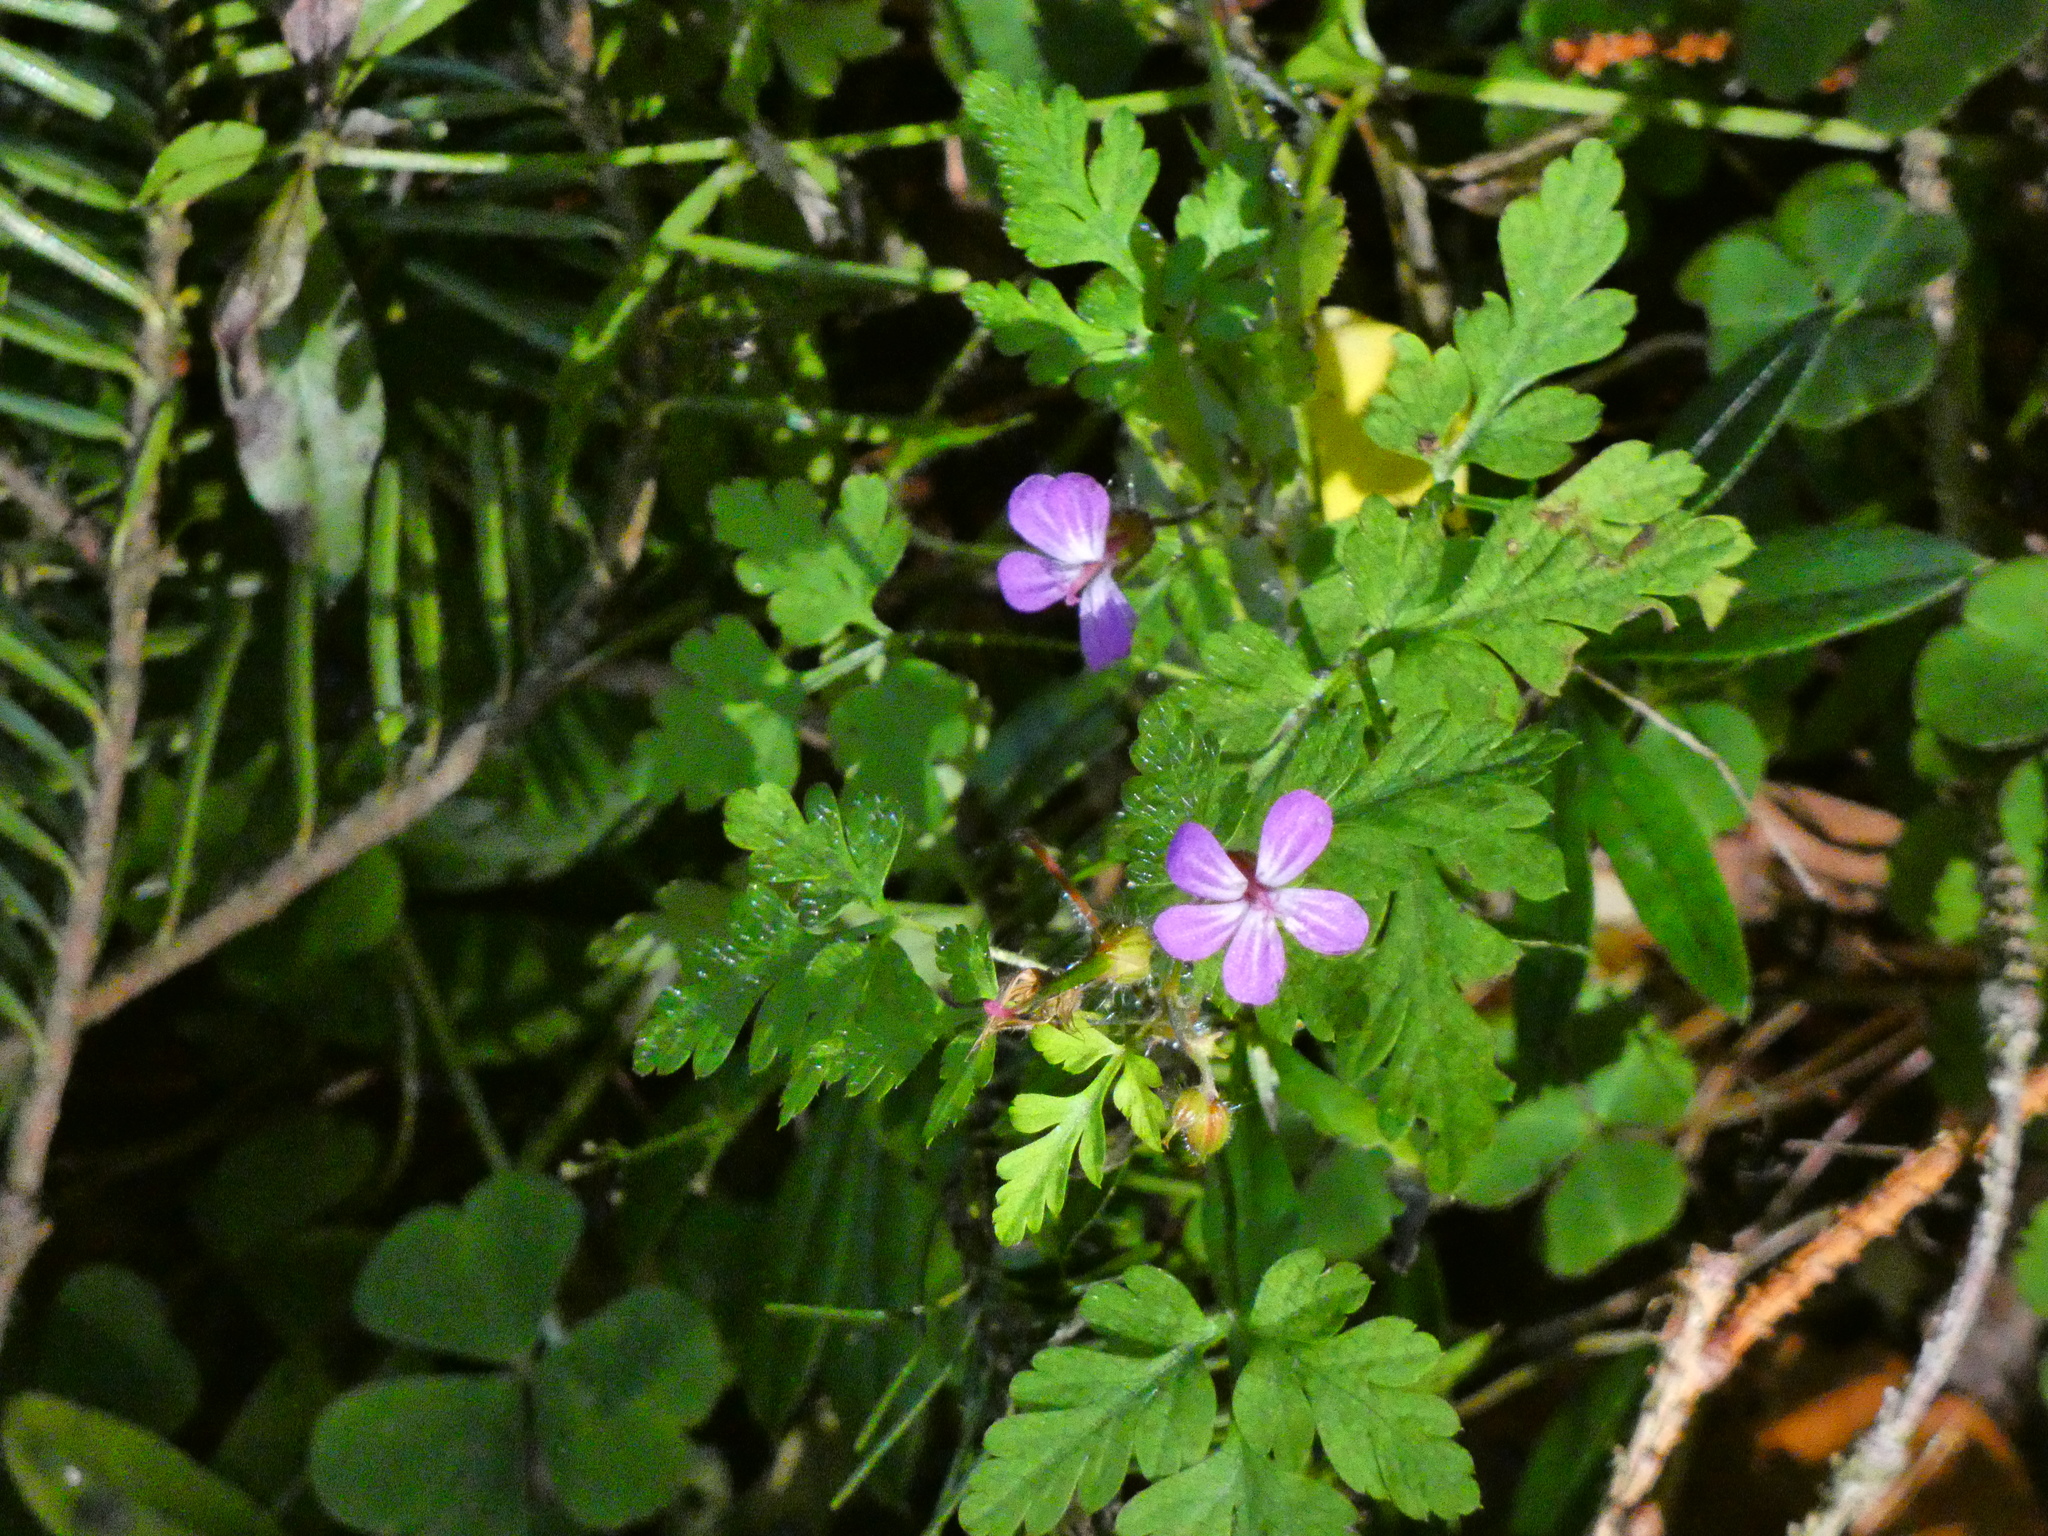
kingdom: Plantae
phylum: Tracheophyta
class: Magnoliopsida
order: Geraniales
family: Geraniaceae
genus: Geranium
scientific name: Geranium robertianum
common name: Herb-robert
